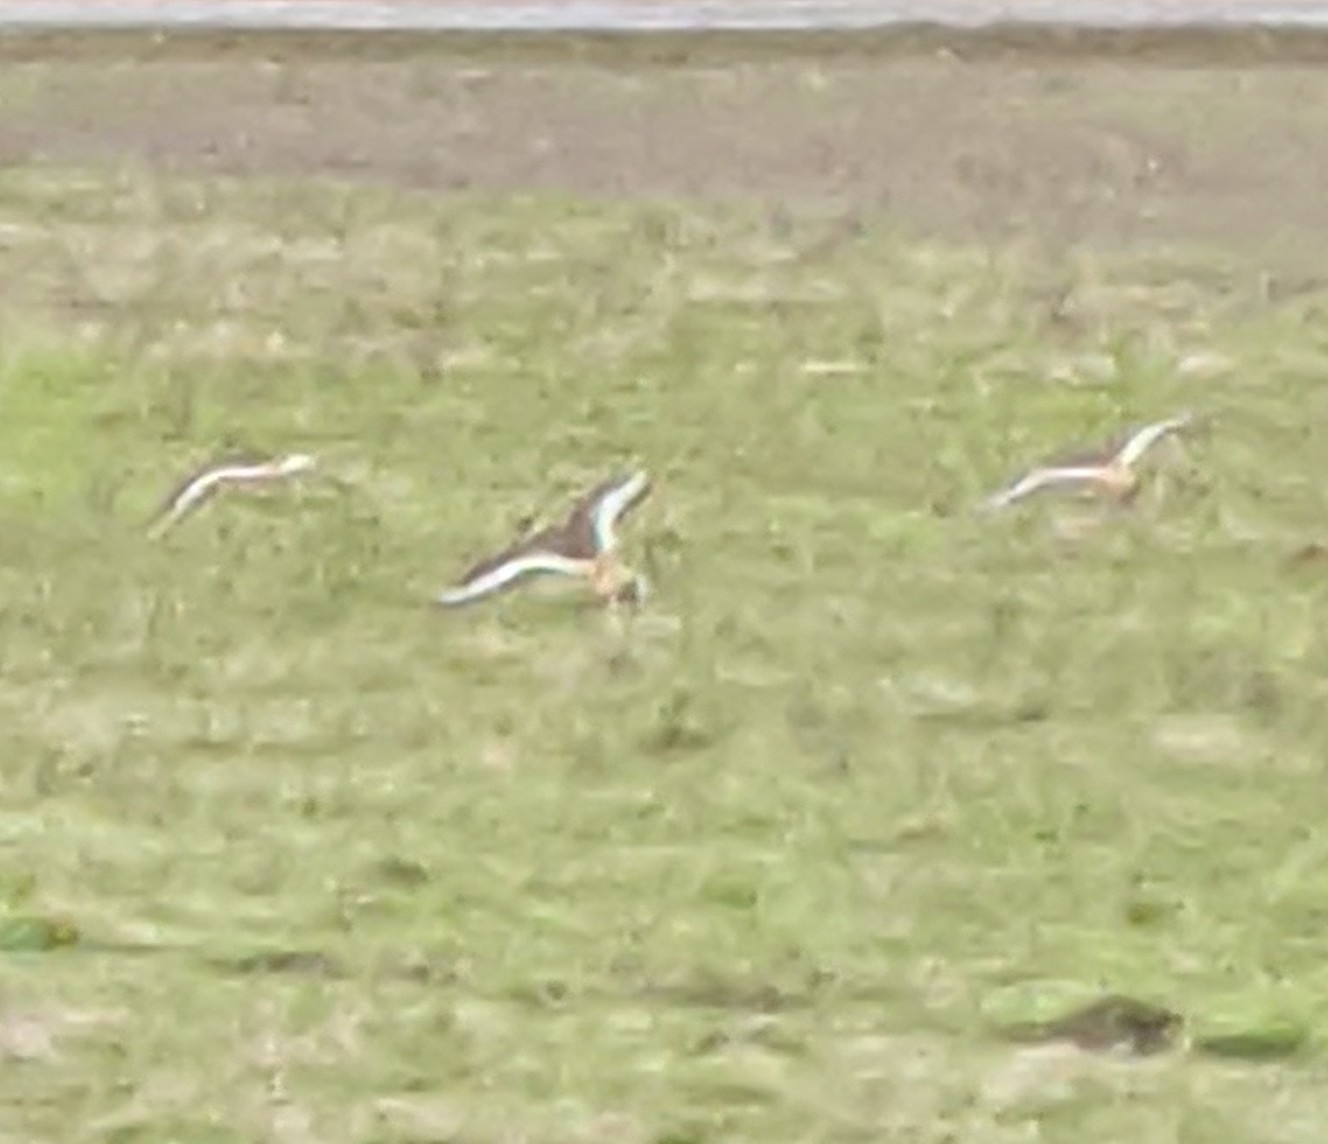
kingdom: Animalia
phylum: Chordata
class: Aves
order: Charadriiformes
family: Charadriidae
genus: Charadrius
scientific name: Charadrius vociferus
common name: Killdeer
